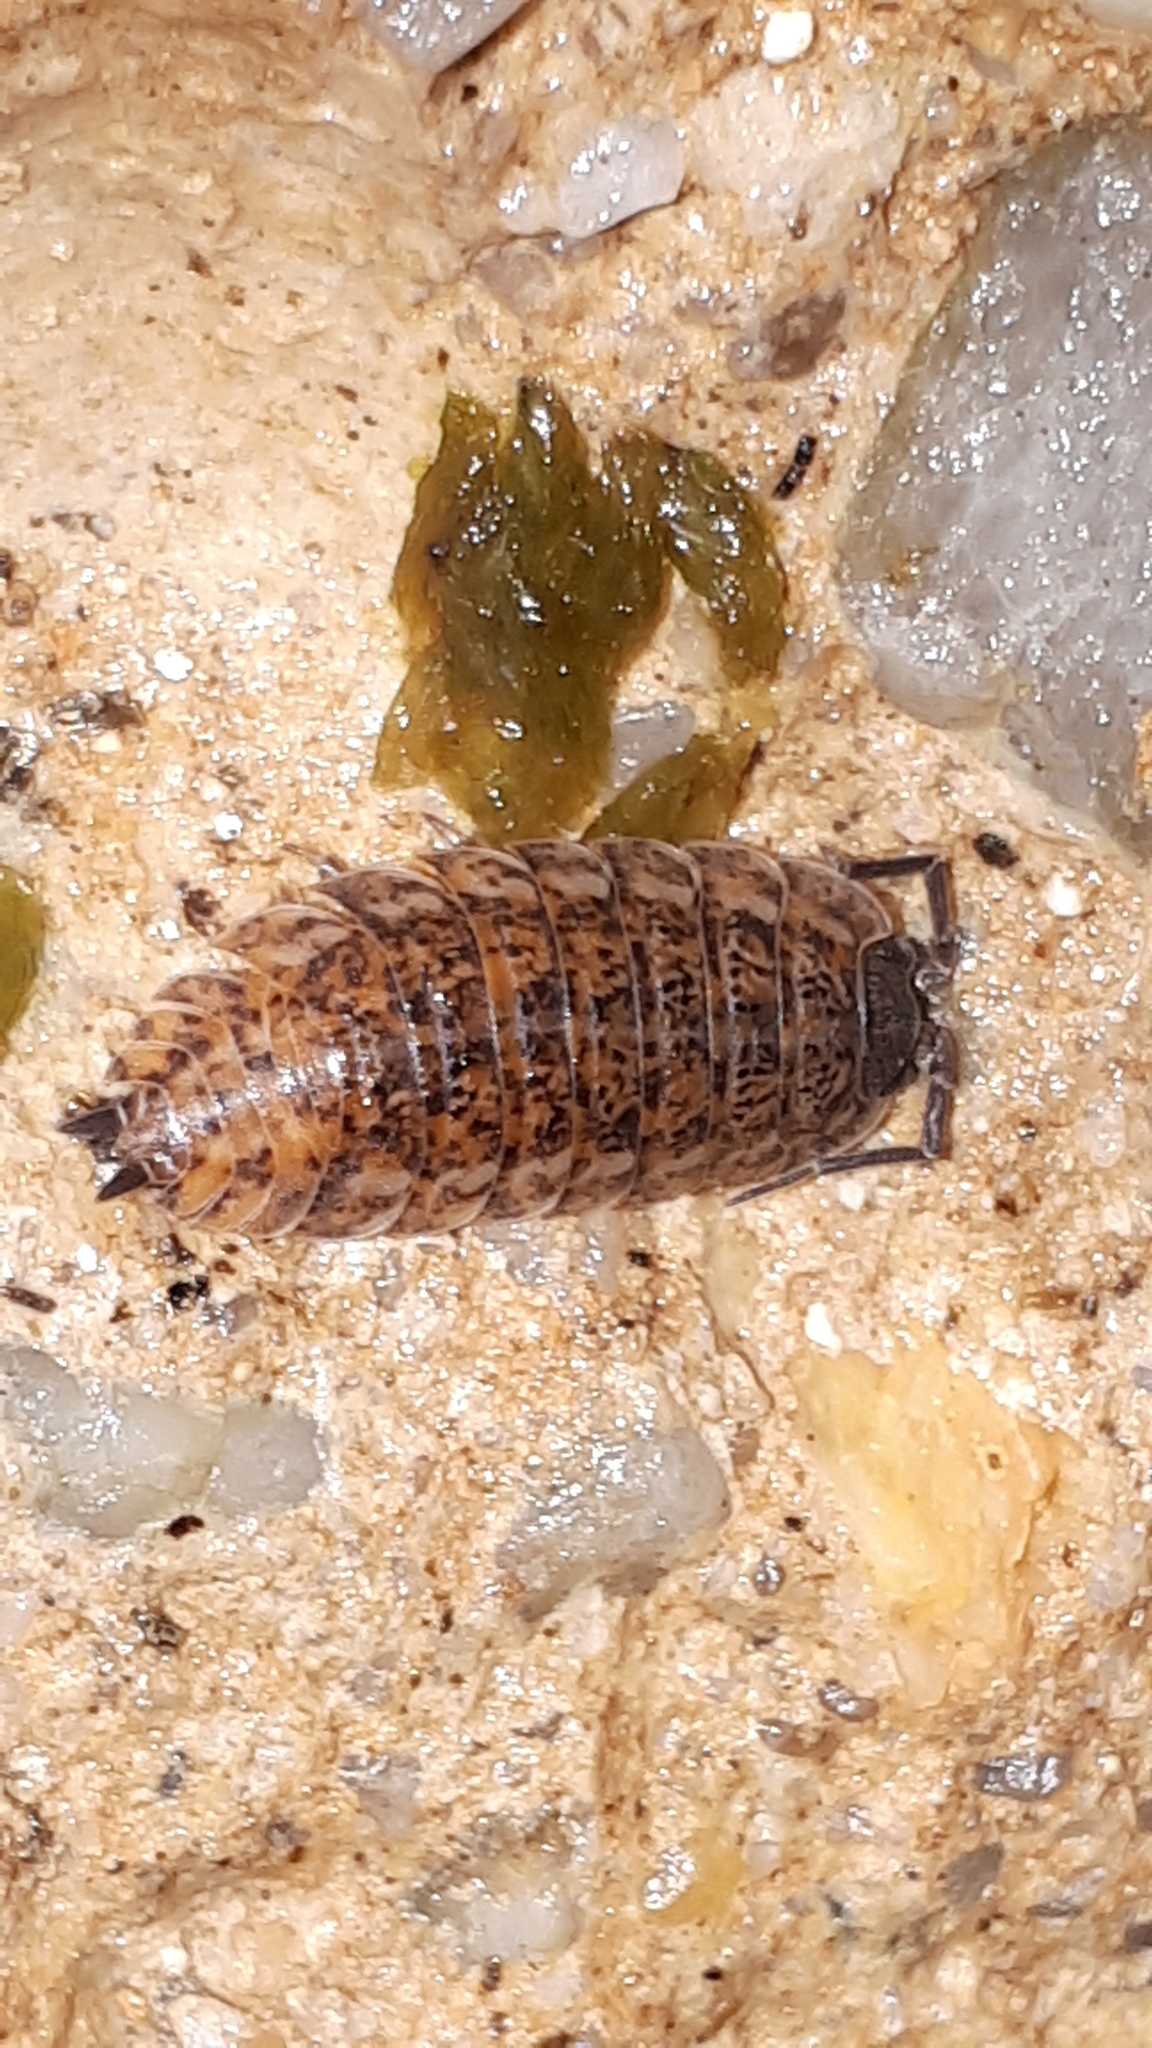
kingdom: Animalia
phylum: Arthropoda
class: Malacostraca
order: Isopoda
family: Trachelipodidae
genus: Trachelipus
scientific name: Trachelipus rathkii
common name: Isopod
